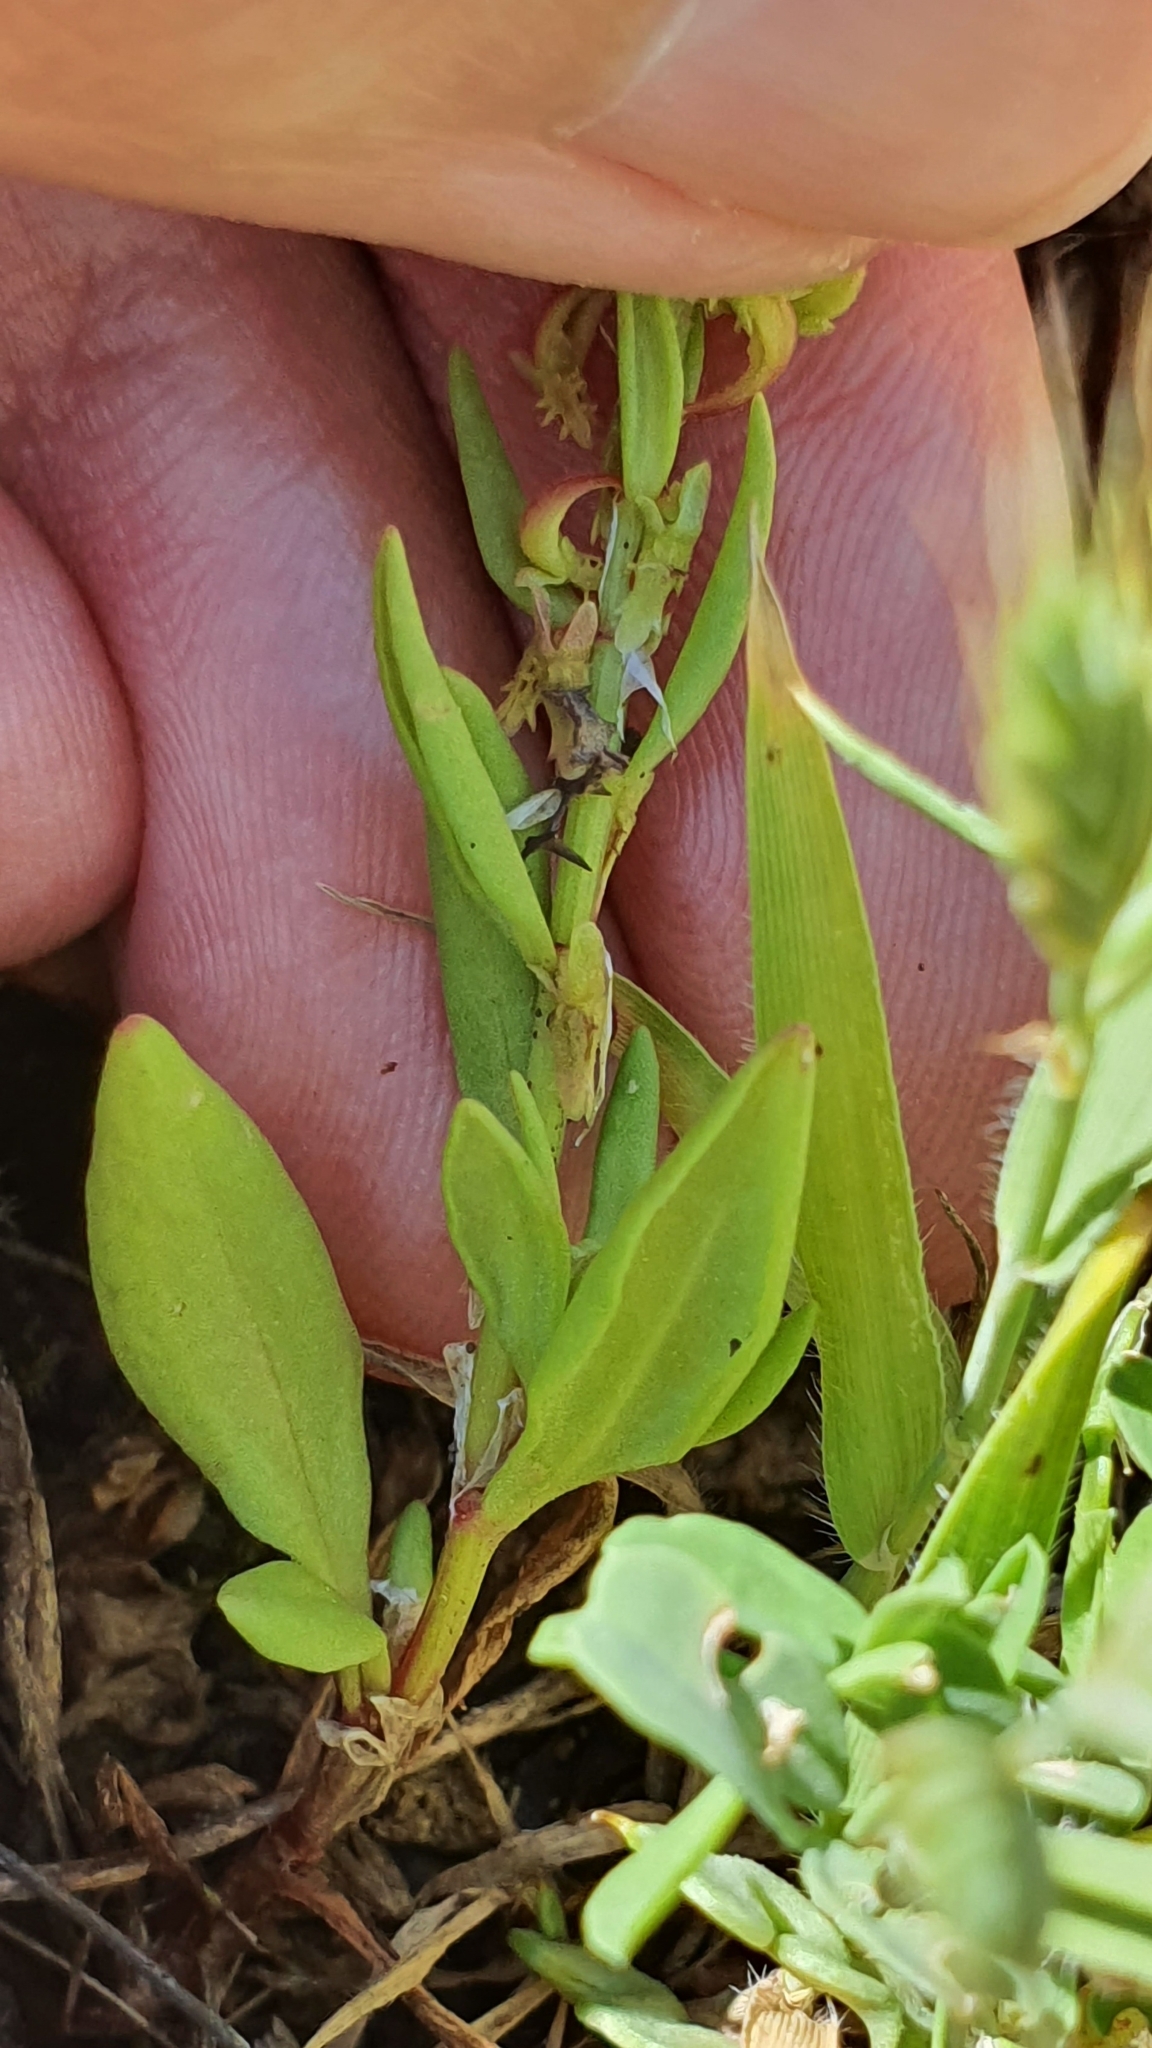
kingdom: Plantae
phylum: Tracheophyta
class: Magnoliopsida
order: Caryophyllales
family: Polygonaceae
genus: Rumex
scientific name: Rumex bucephalophorus
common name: Red dock
